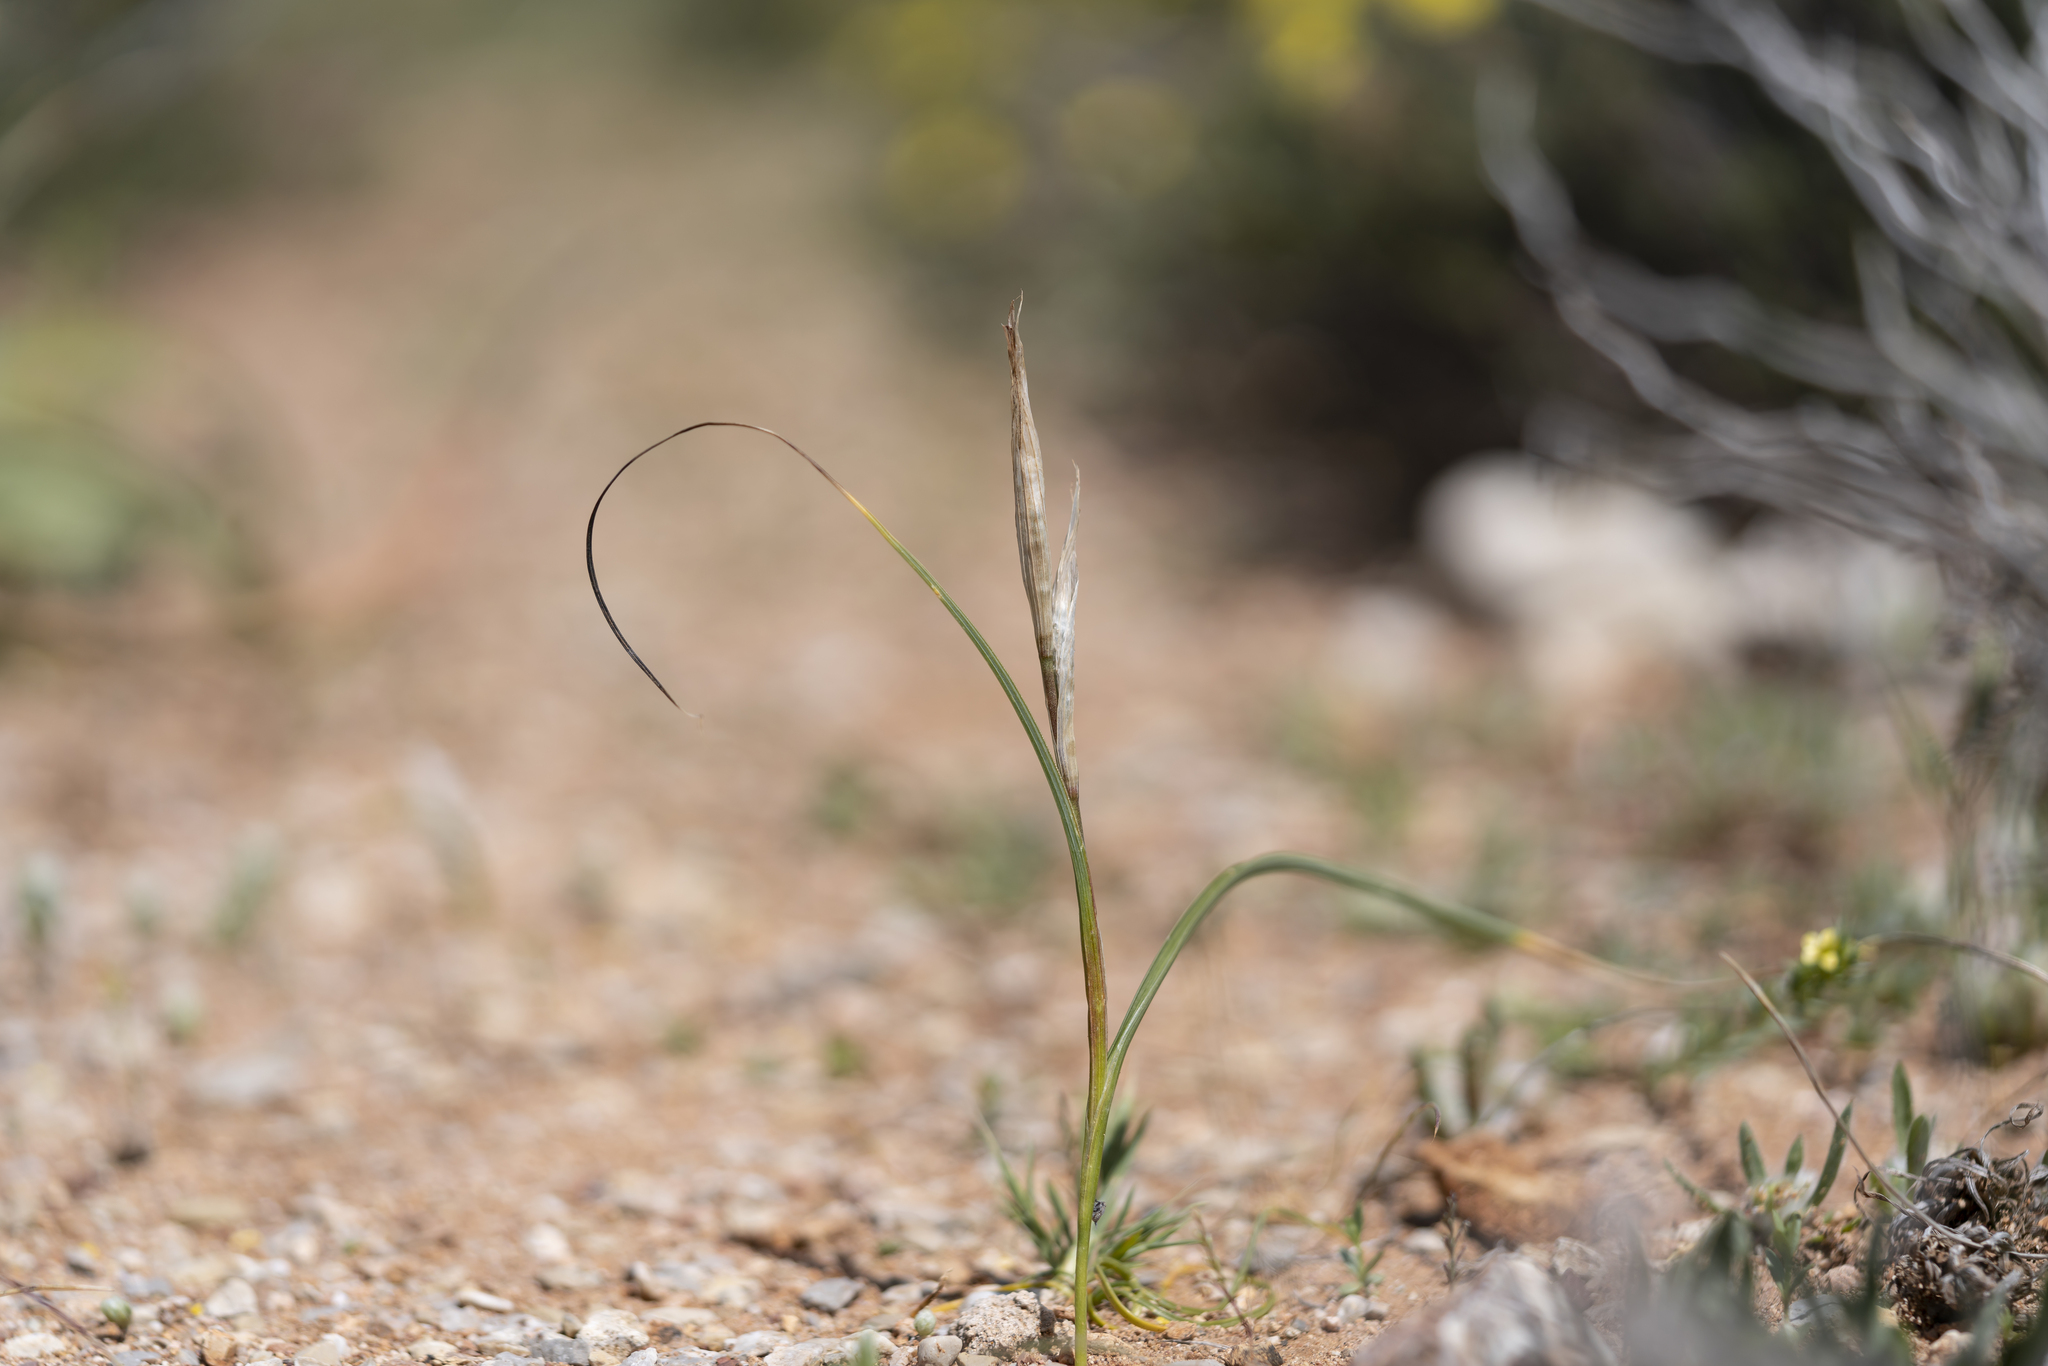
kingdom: Plantae
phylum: Tracheophyta
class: Liliopsida
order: Asparagales
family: Iridaceae
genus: Moraea
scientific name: Moraea sisyrinchium
